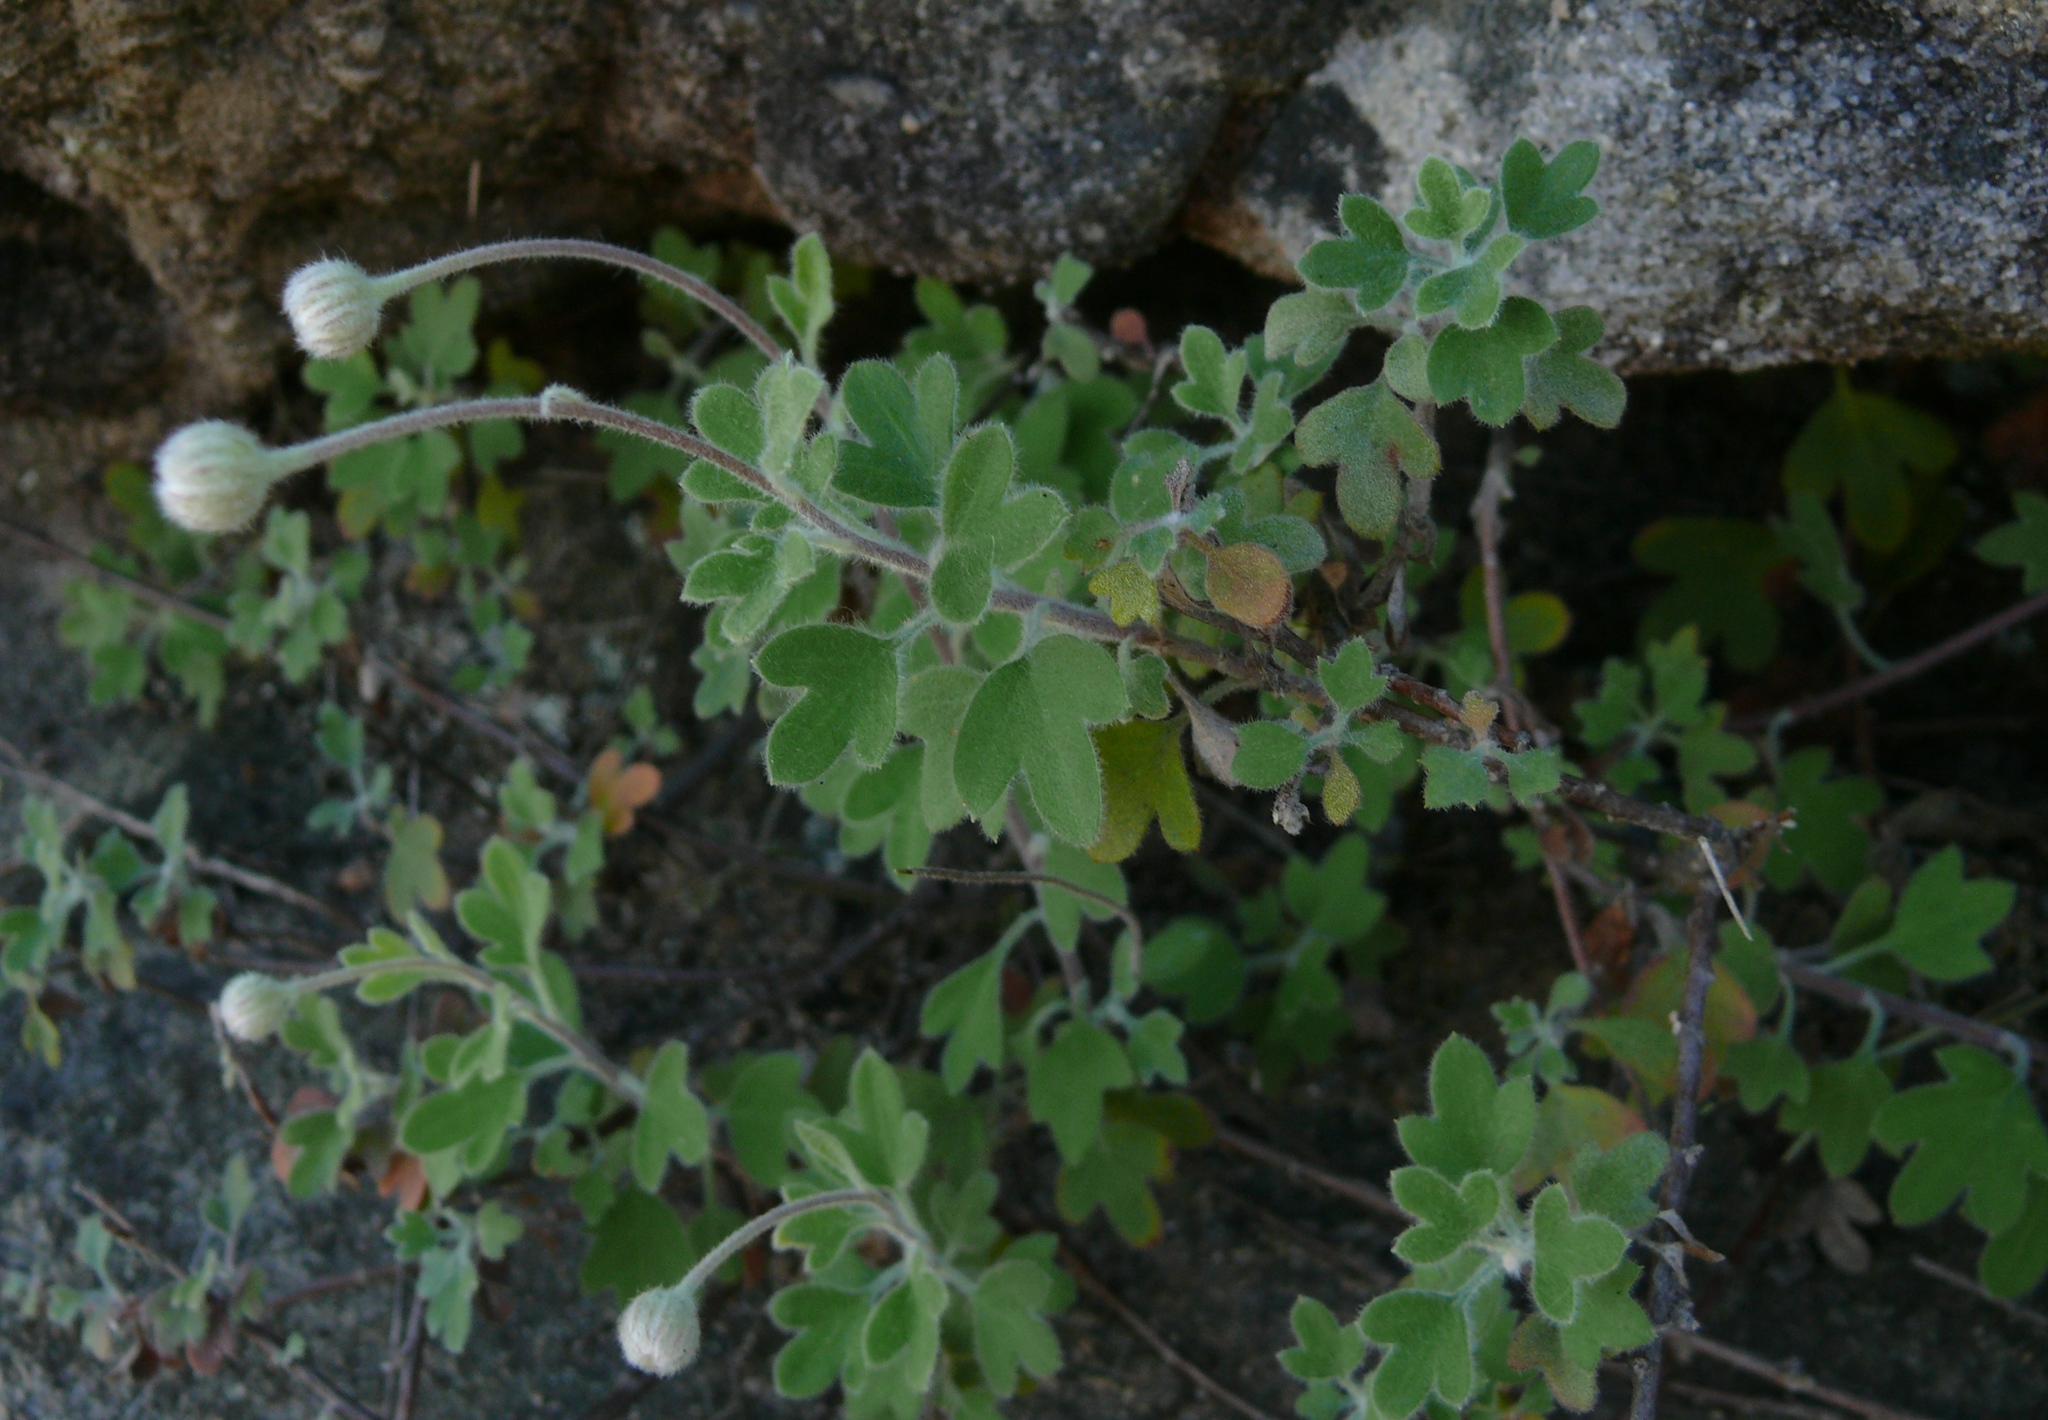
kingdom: Plantae
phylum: Tracheophyta
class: Magnoliopsida
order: Asterales
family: Asteraceae
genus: Lidbeckia
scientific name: Lidbeckia quinqueloba
